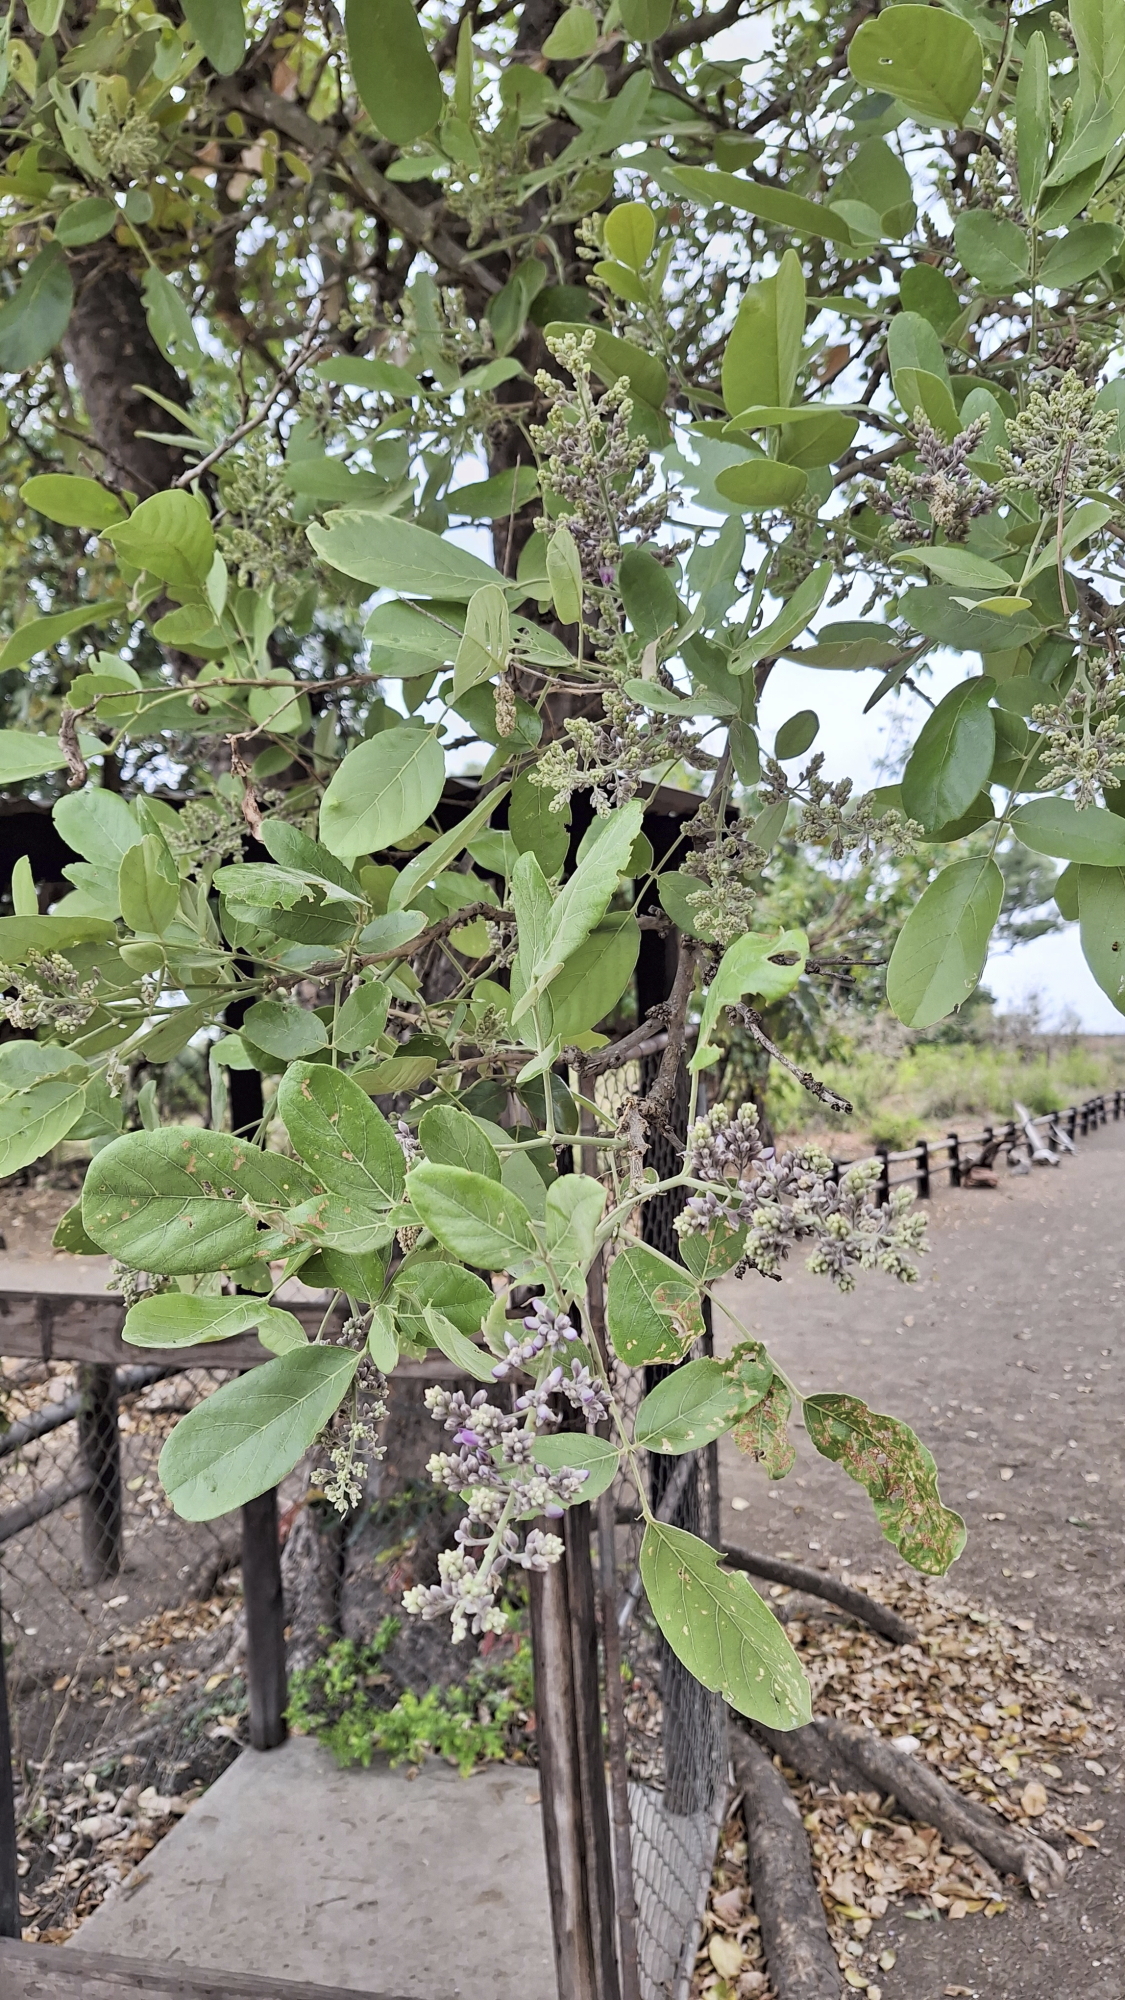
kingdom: Plantae
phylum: Tracheophyta
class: Magnoliopsida
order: Fabales
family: Fabaceae
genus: Philenoptera
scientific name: Philenoptera violacea
